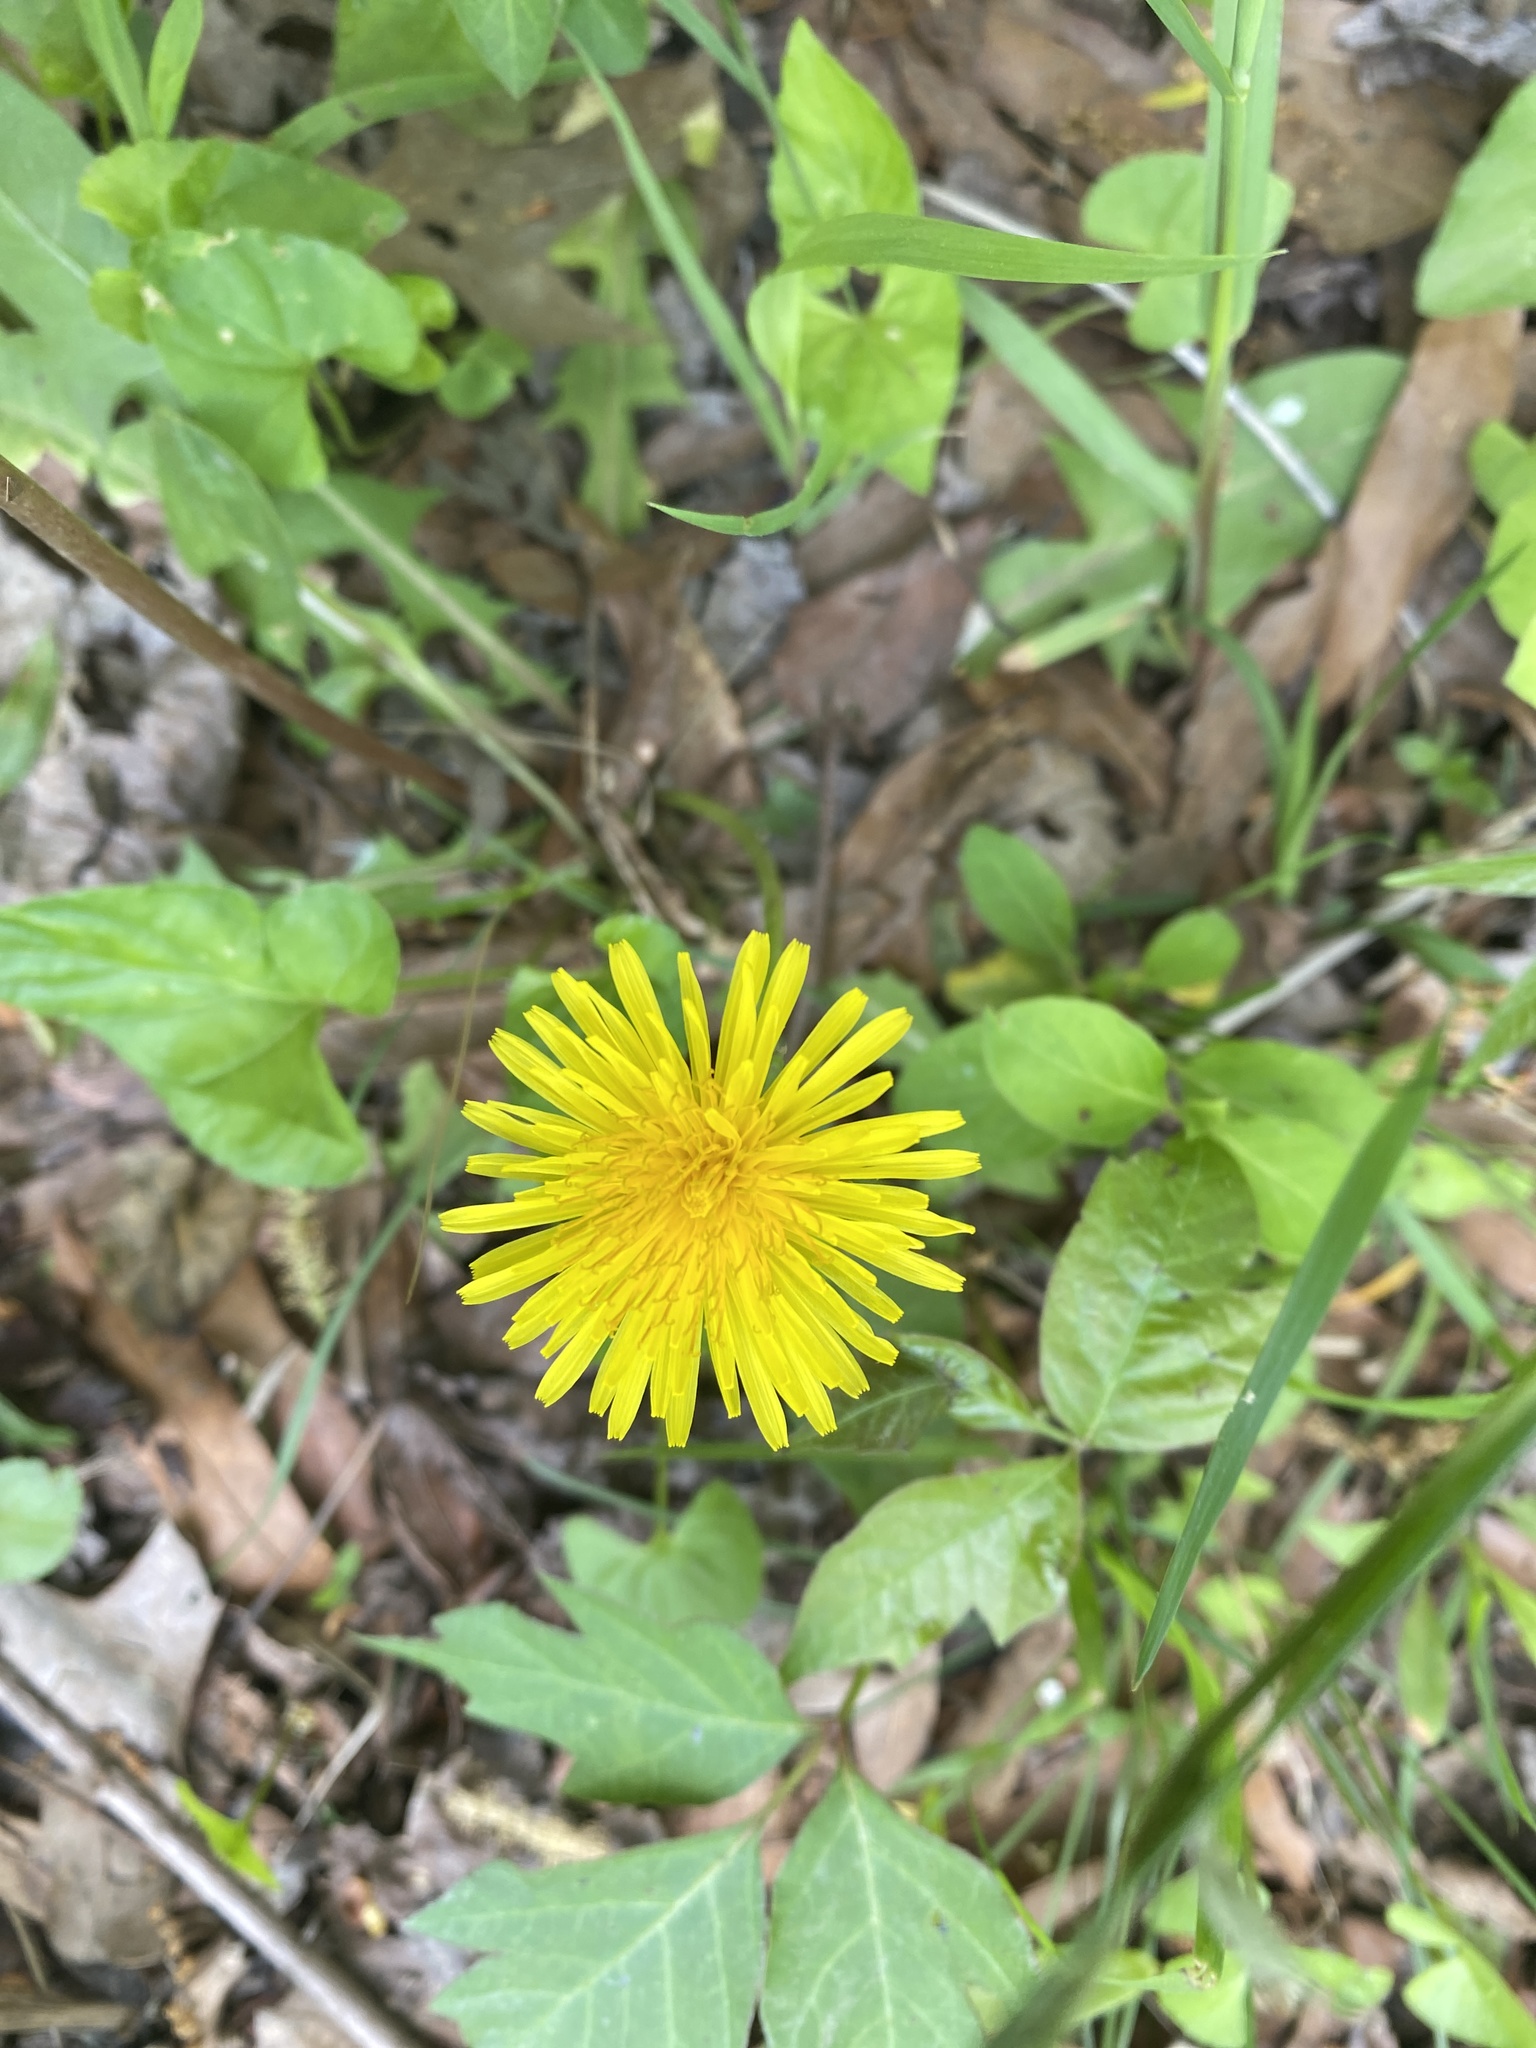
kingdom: Plantae
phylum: Tracheophyta
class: Magnoliopsida
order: Asterales
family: Asteraceae
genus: Taraxacum
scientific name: Taraxacum officinale
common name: Common dandelion
